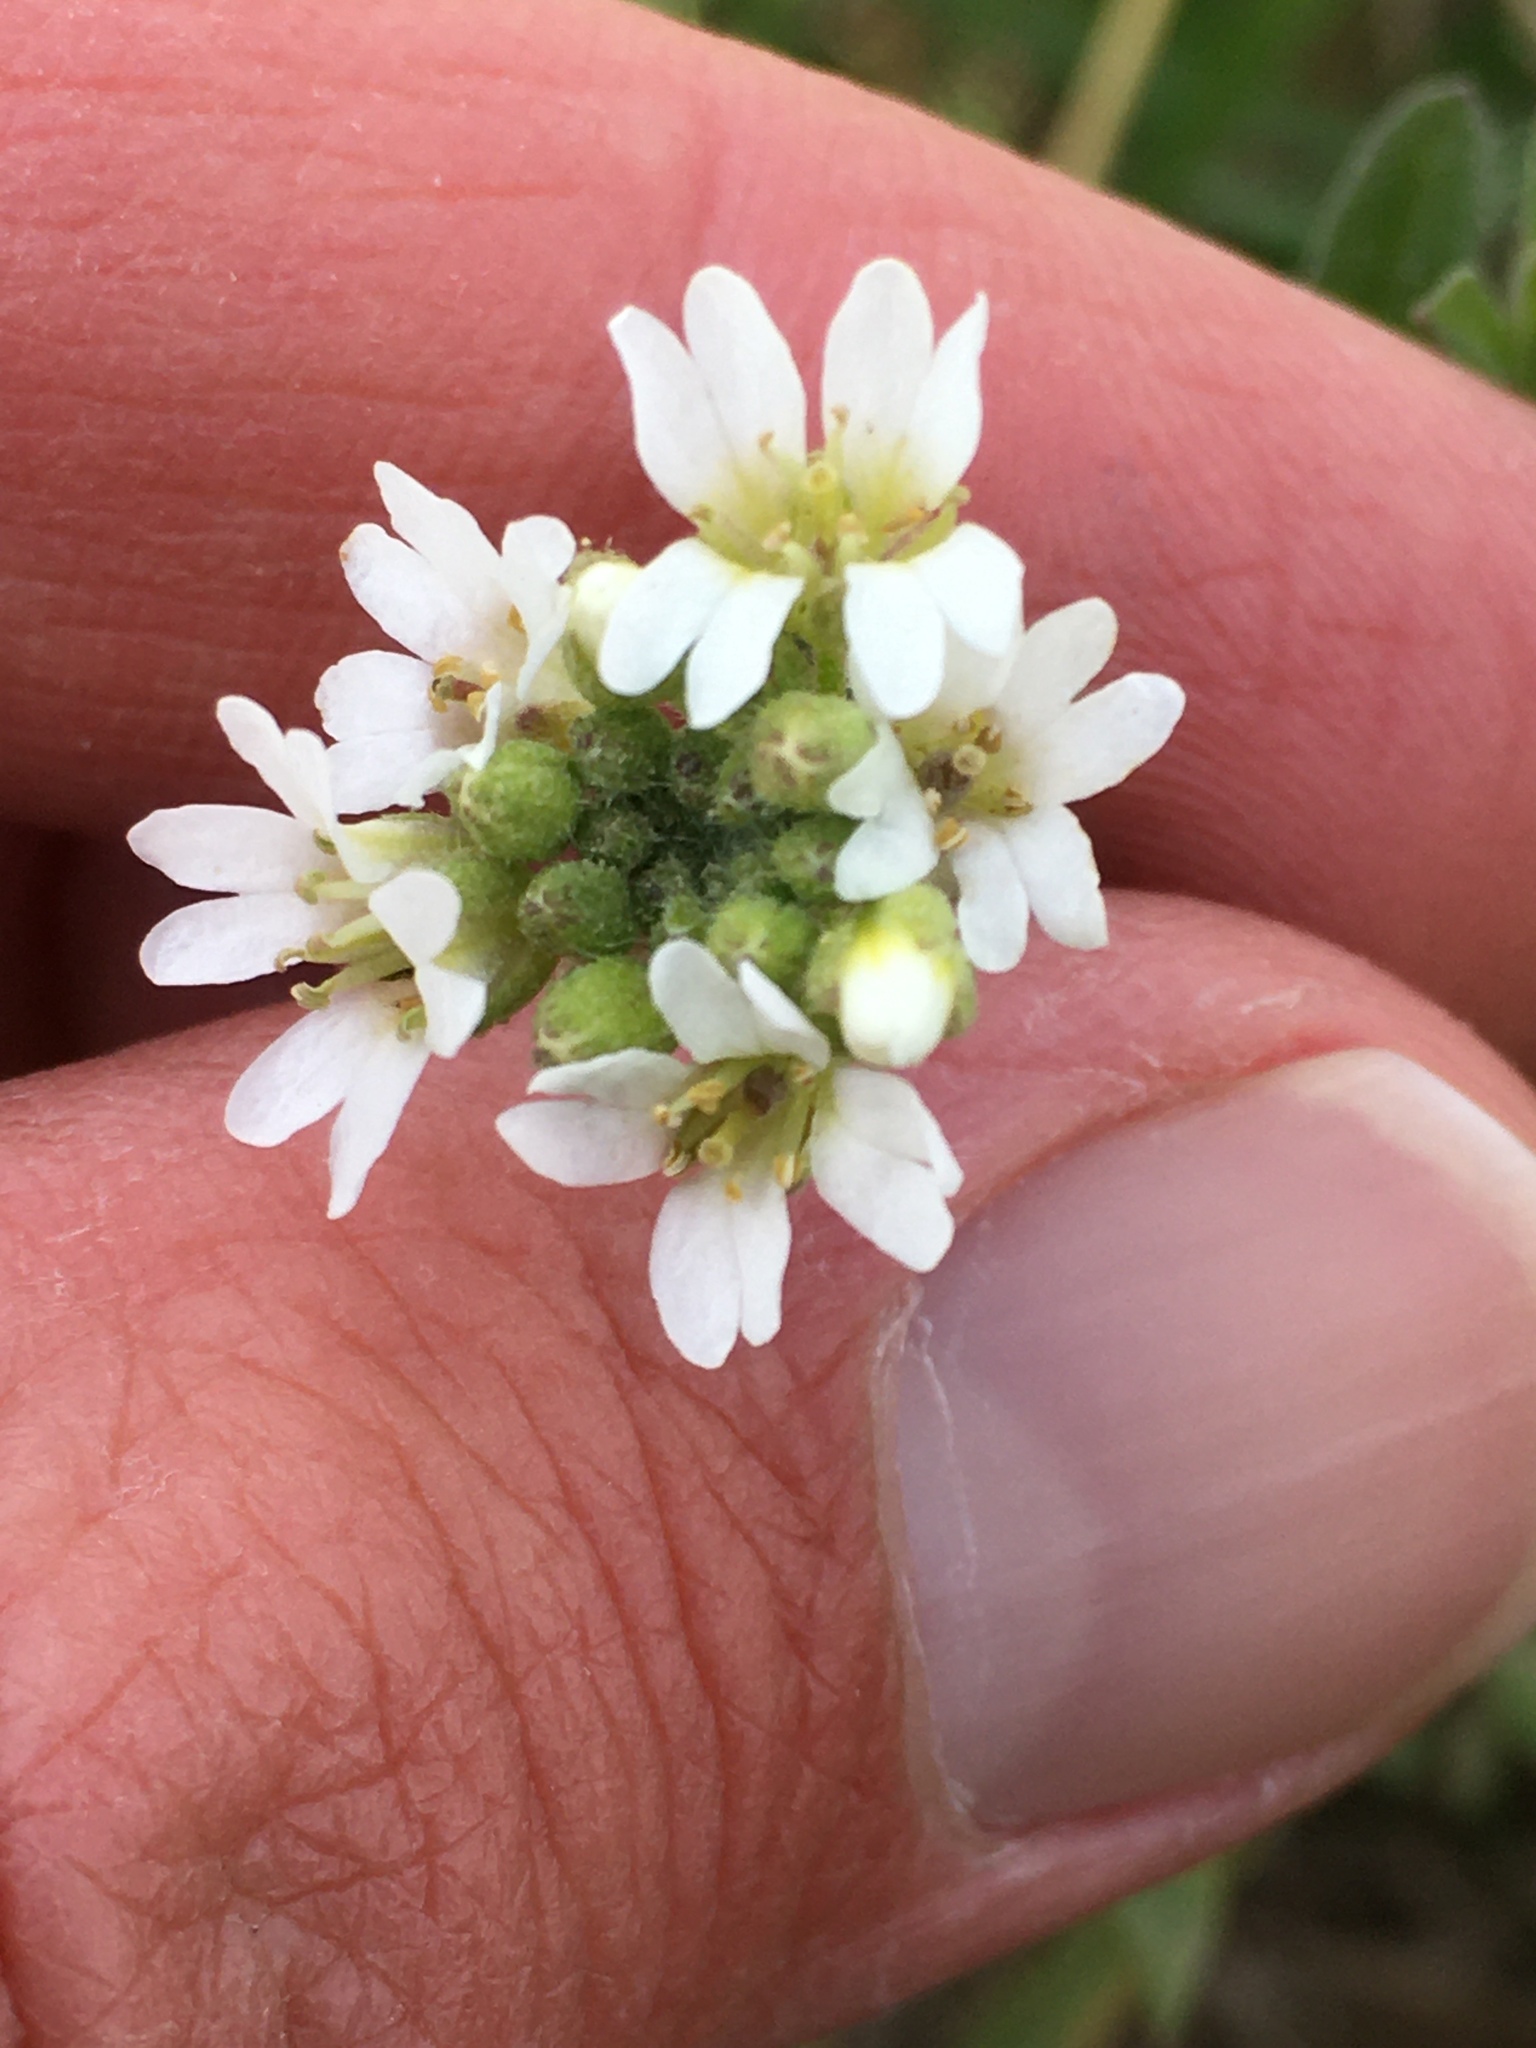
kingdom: Plantae
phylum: Tracheophyta
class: Magnoliopsida
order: Brassicales
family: Brassicaceae
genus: Berteroa
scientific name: Berteroa incana
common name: Hoary alison
